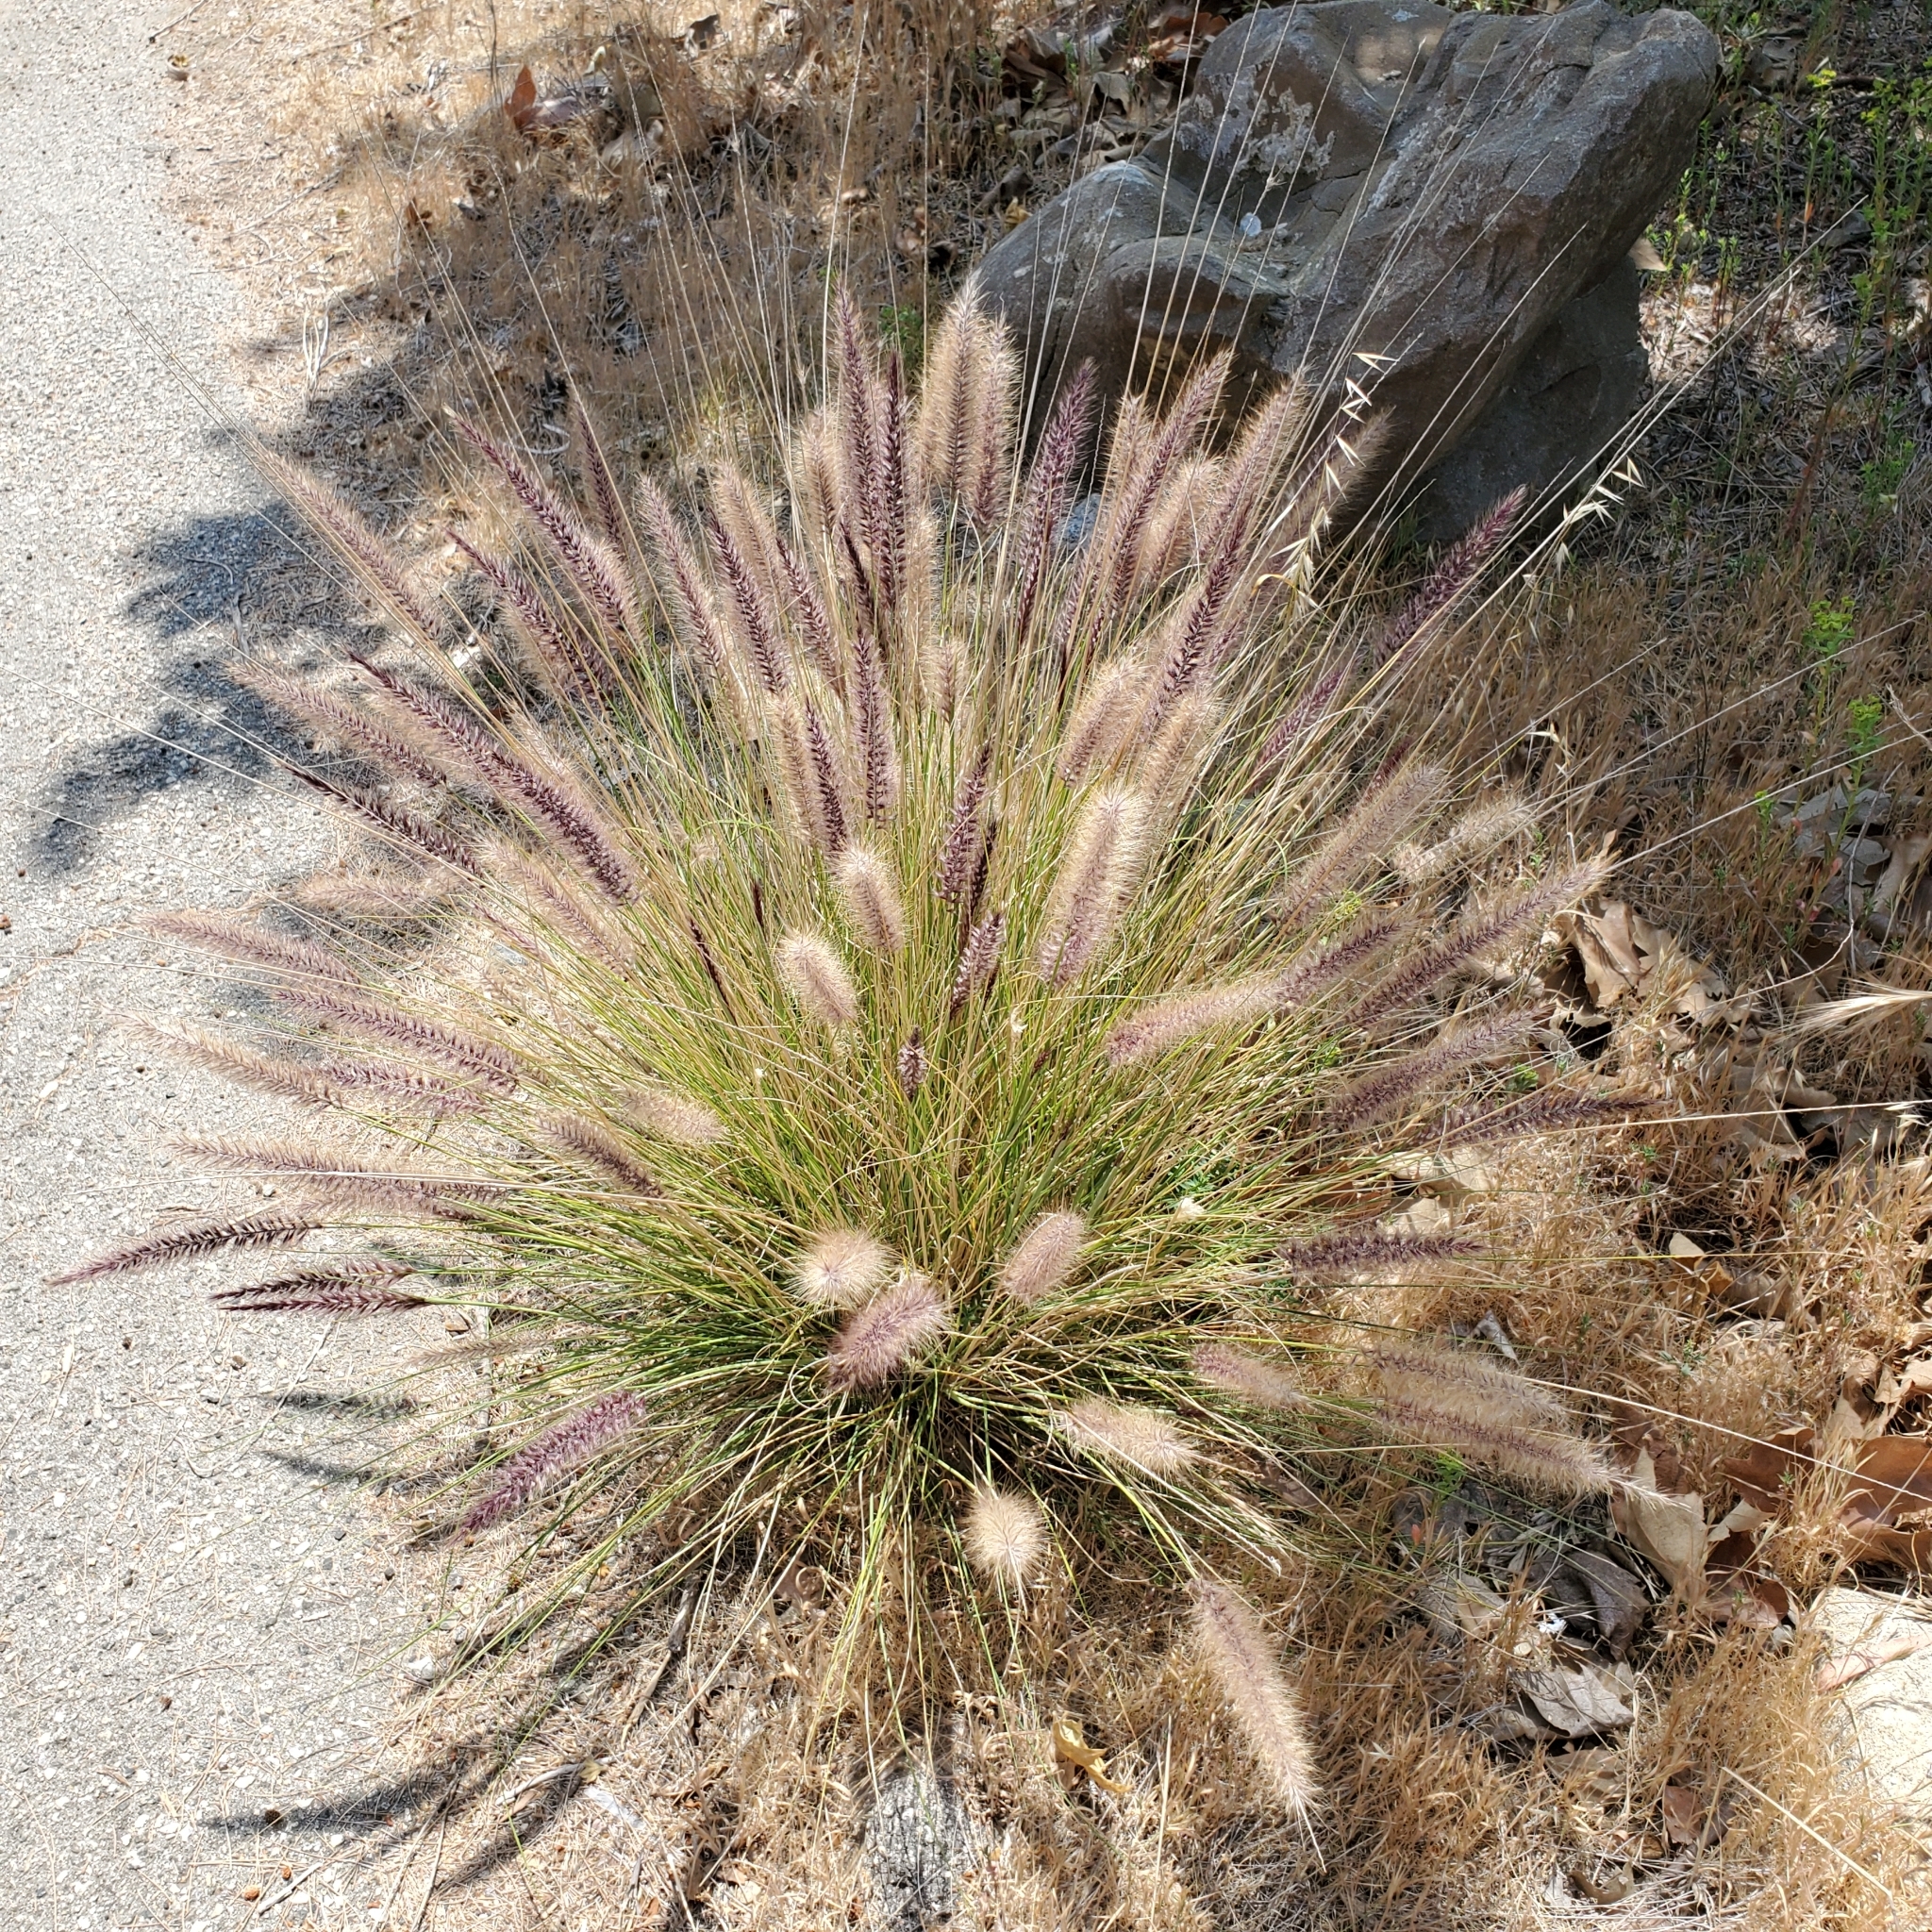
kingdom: Plantae
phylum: Tracheophyta
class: Liliopsida
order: Poales
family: Poaceae
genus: Cenchrus
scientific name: Cenchrus setaceus
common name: Crimson fountaingrass
